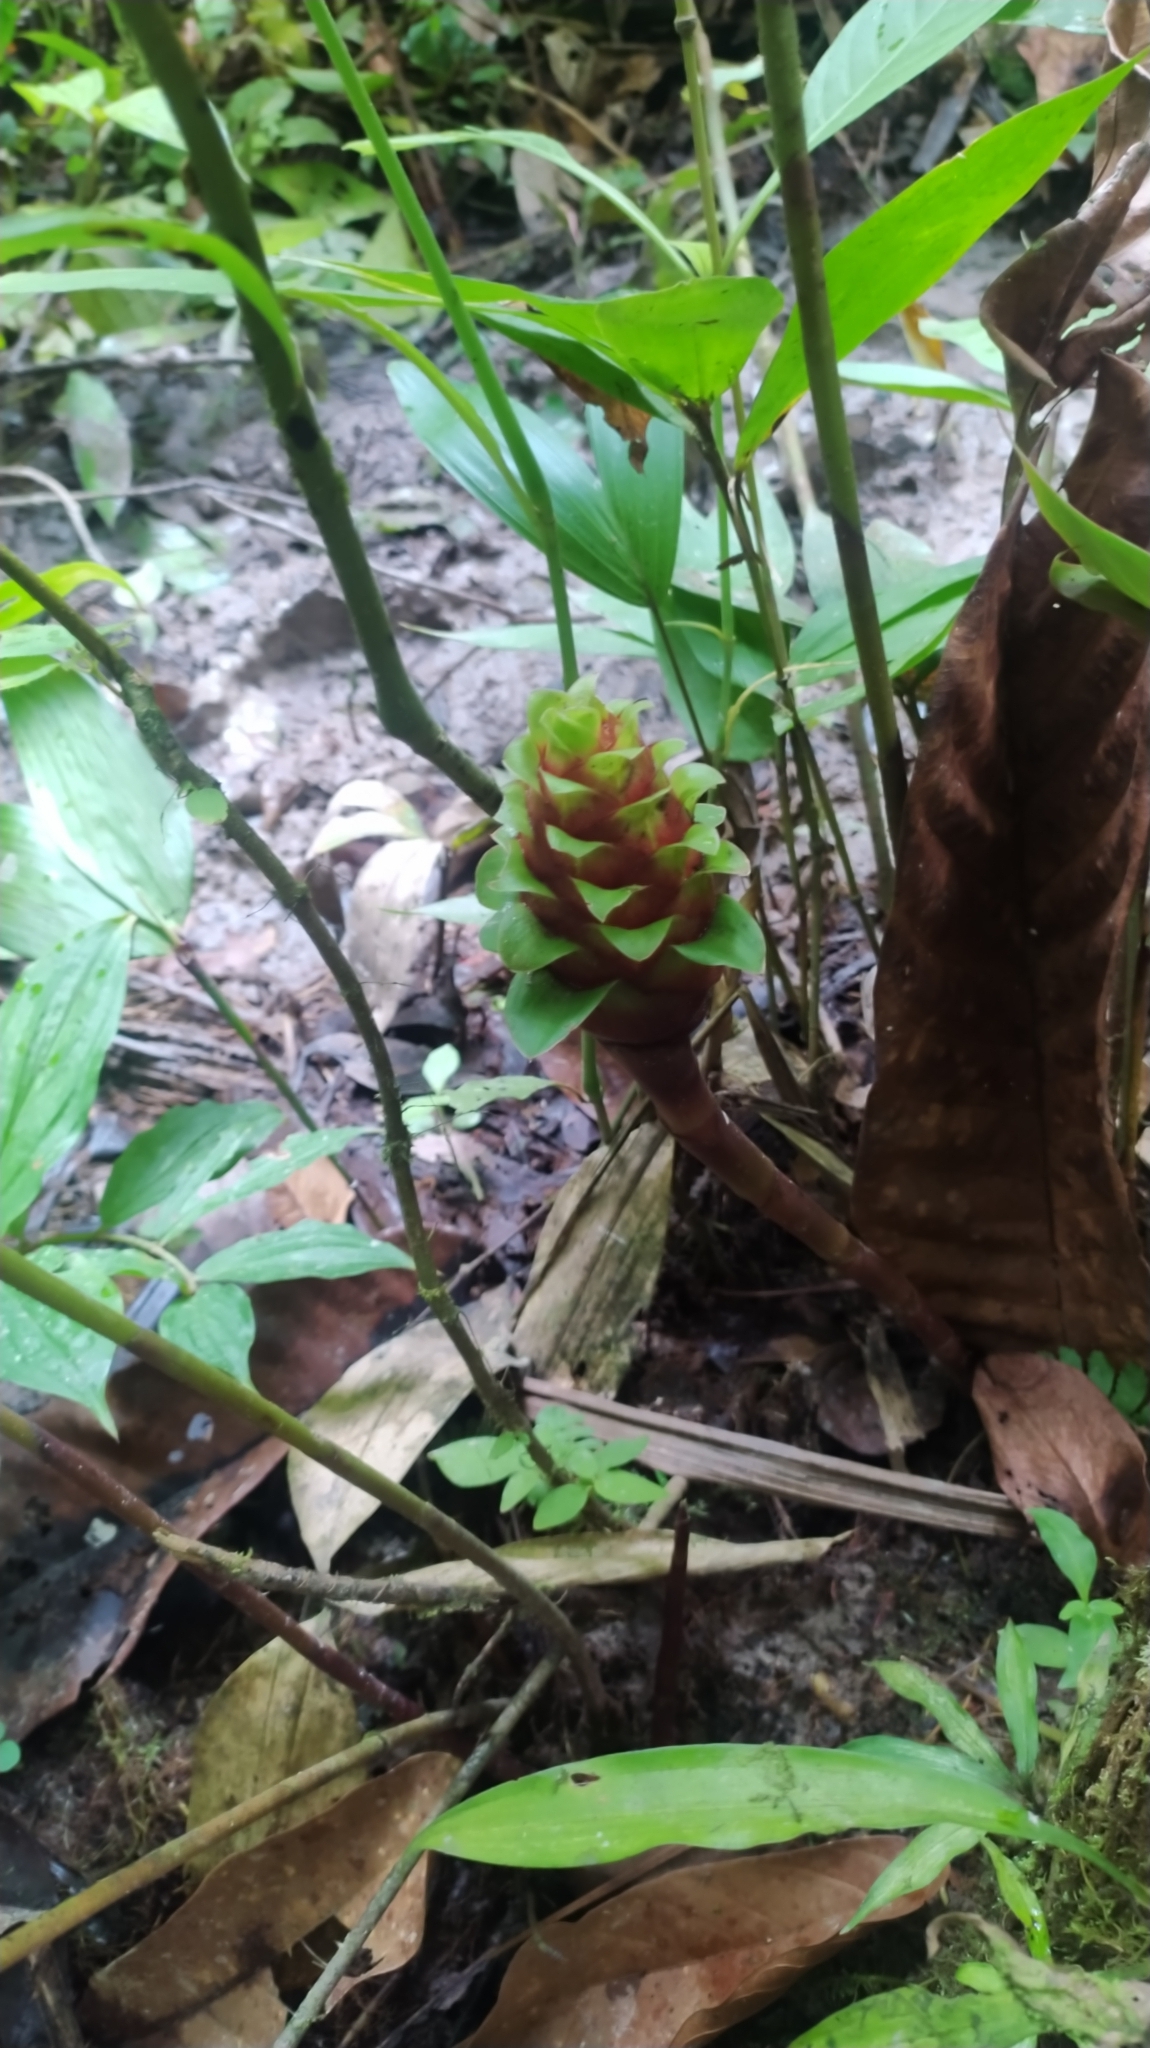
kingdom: Plantae
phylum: Tracheophyta
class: Liliopsida
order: Zingiberales
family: Costaceae
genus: Costus
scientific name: Costus claviger
